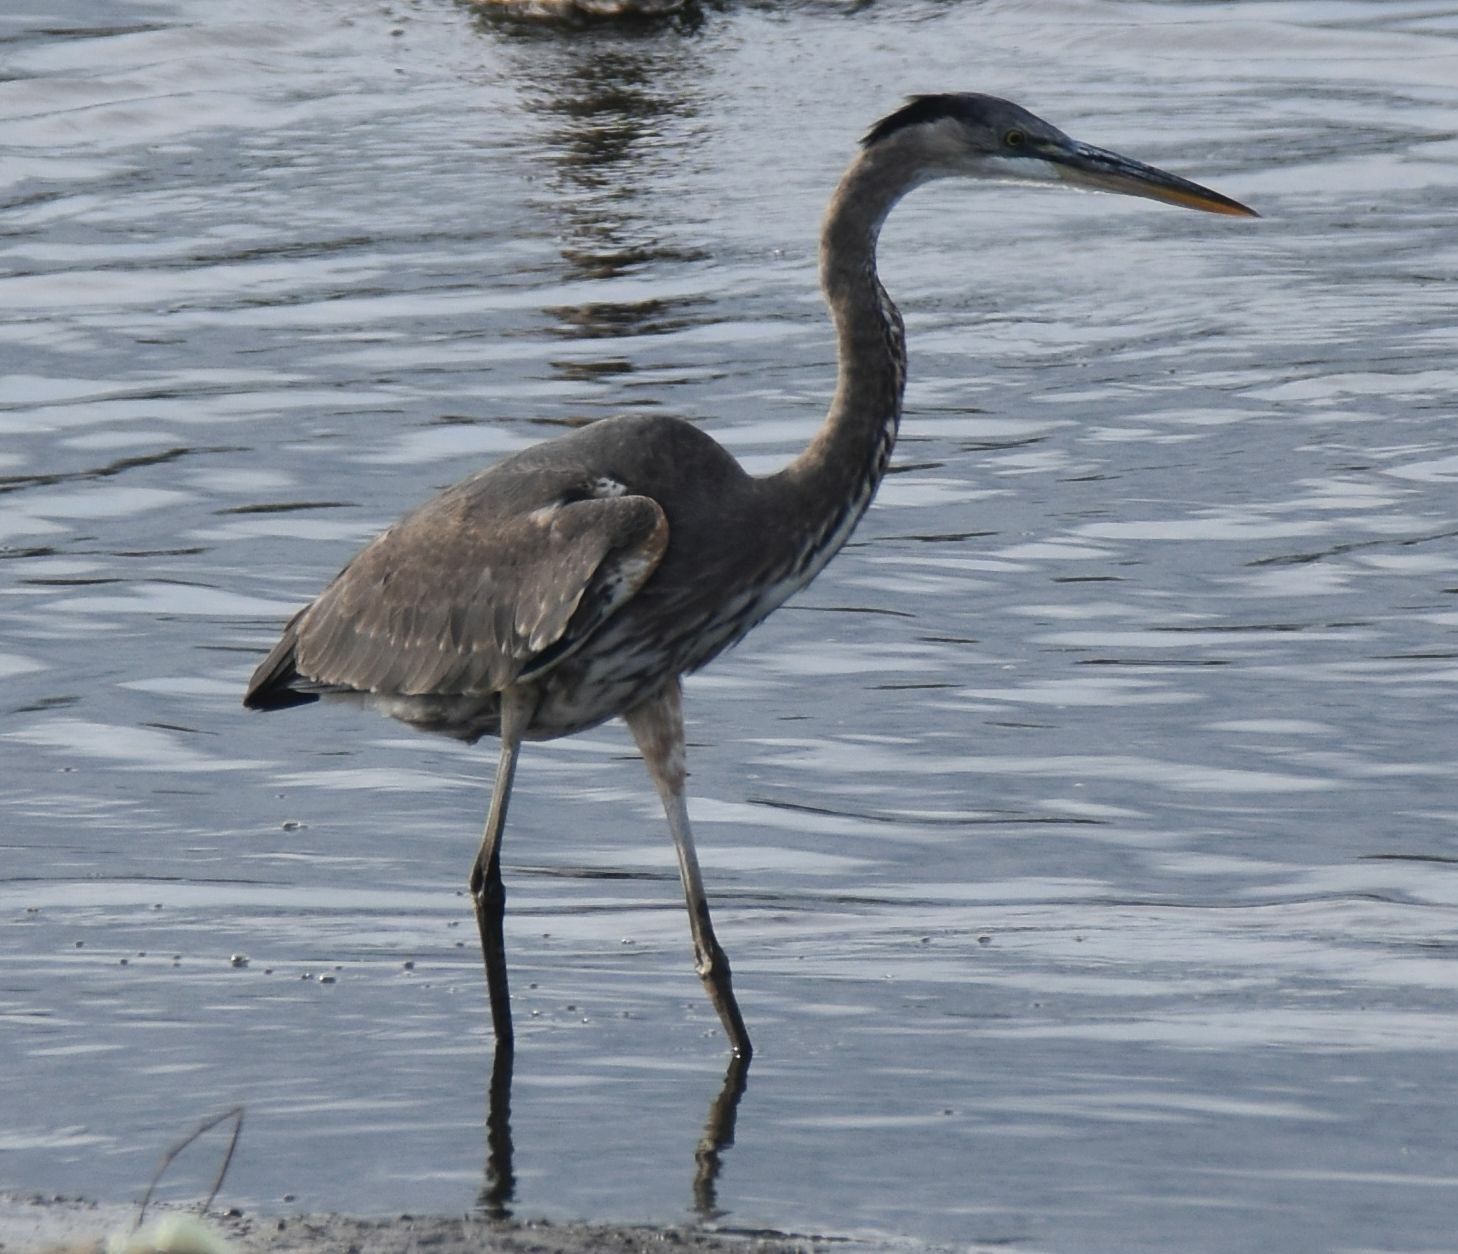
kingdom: Animalia
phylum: Chordata
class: Aves
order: Pelecaniformes
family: Ardeidae
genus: Ardea
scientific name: Ardea herodias
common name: Great blue heron
